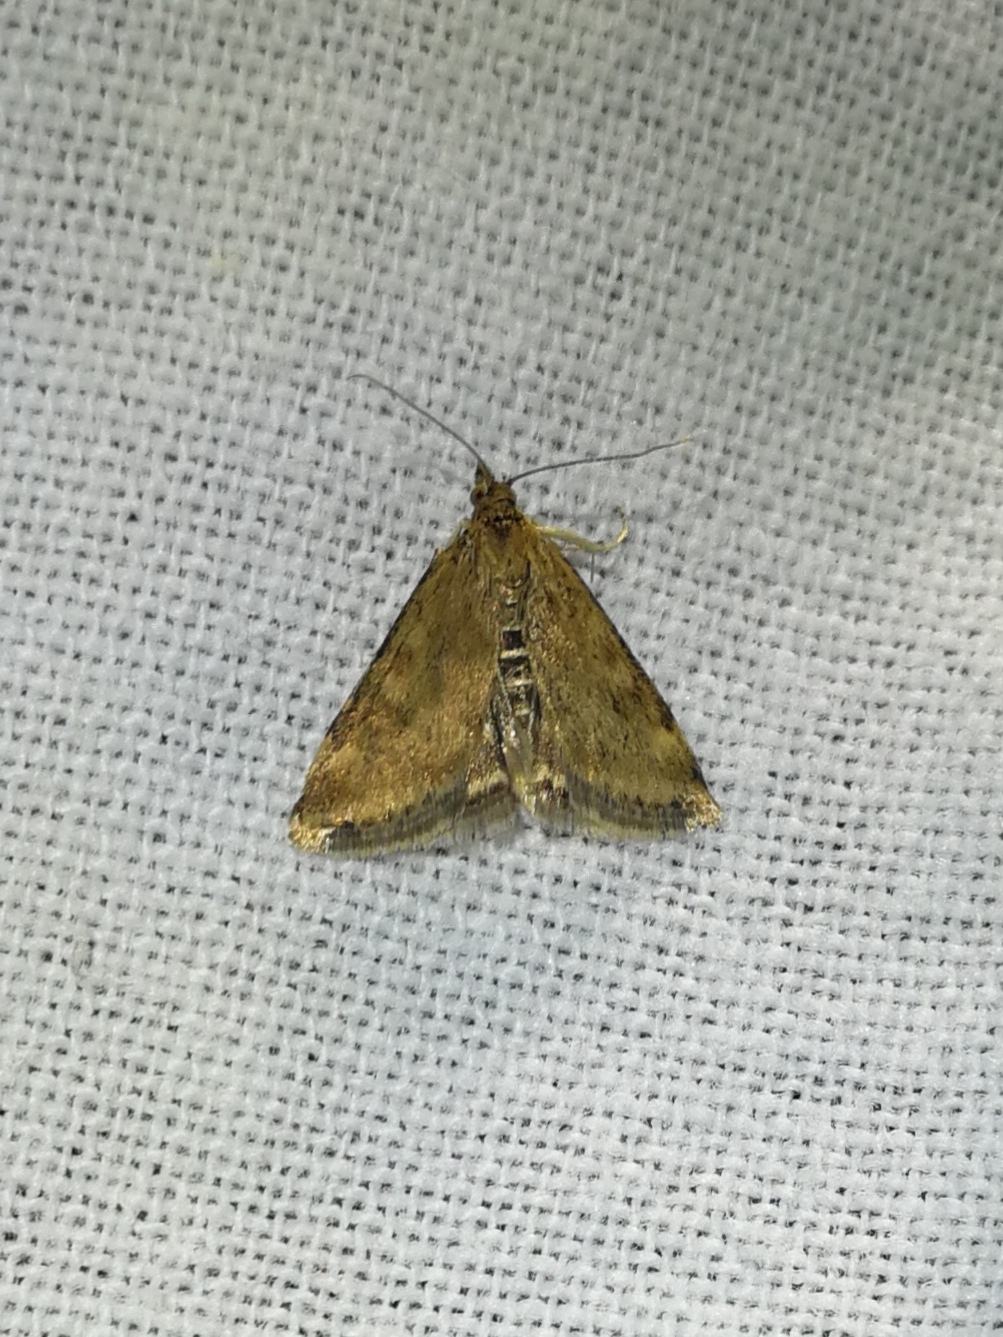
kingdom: Animalia
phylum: Arthropoda
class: Insecta
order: Lepidoptera
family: Crambidae
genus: Pyrausta
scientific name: Pyrausta despicata
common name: Straw-barred pearl
